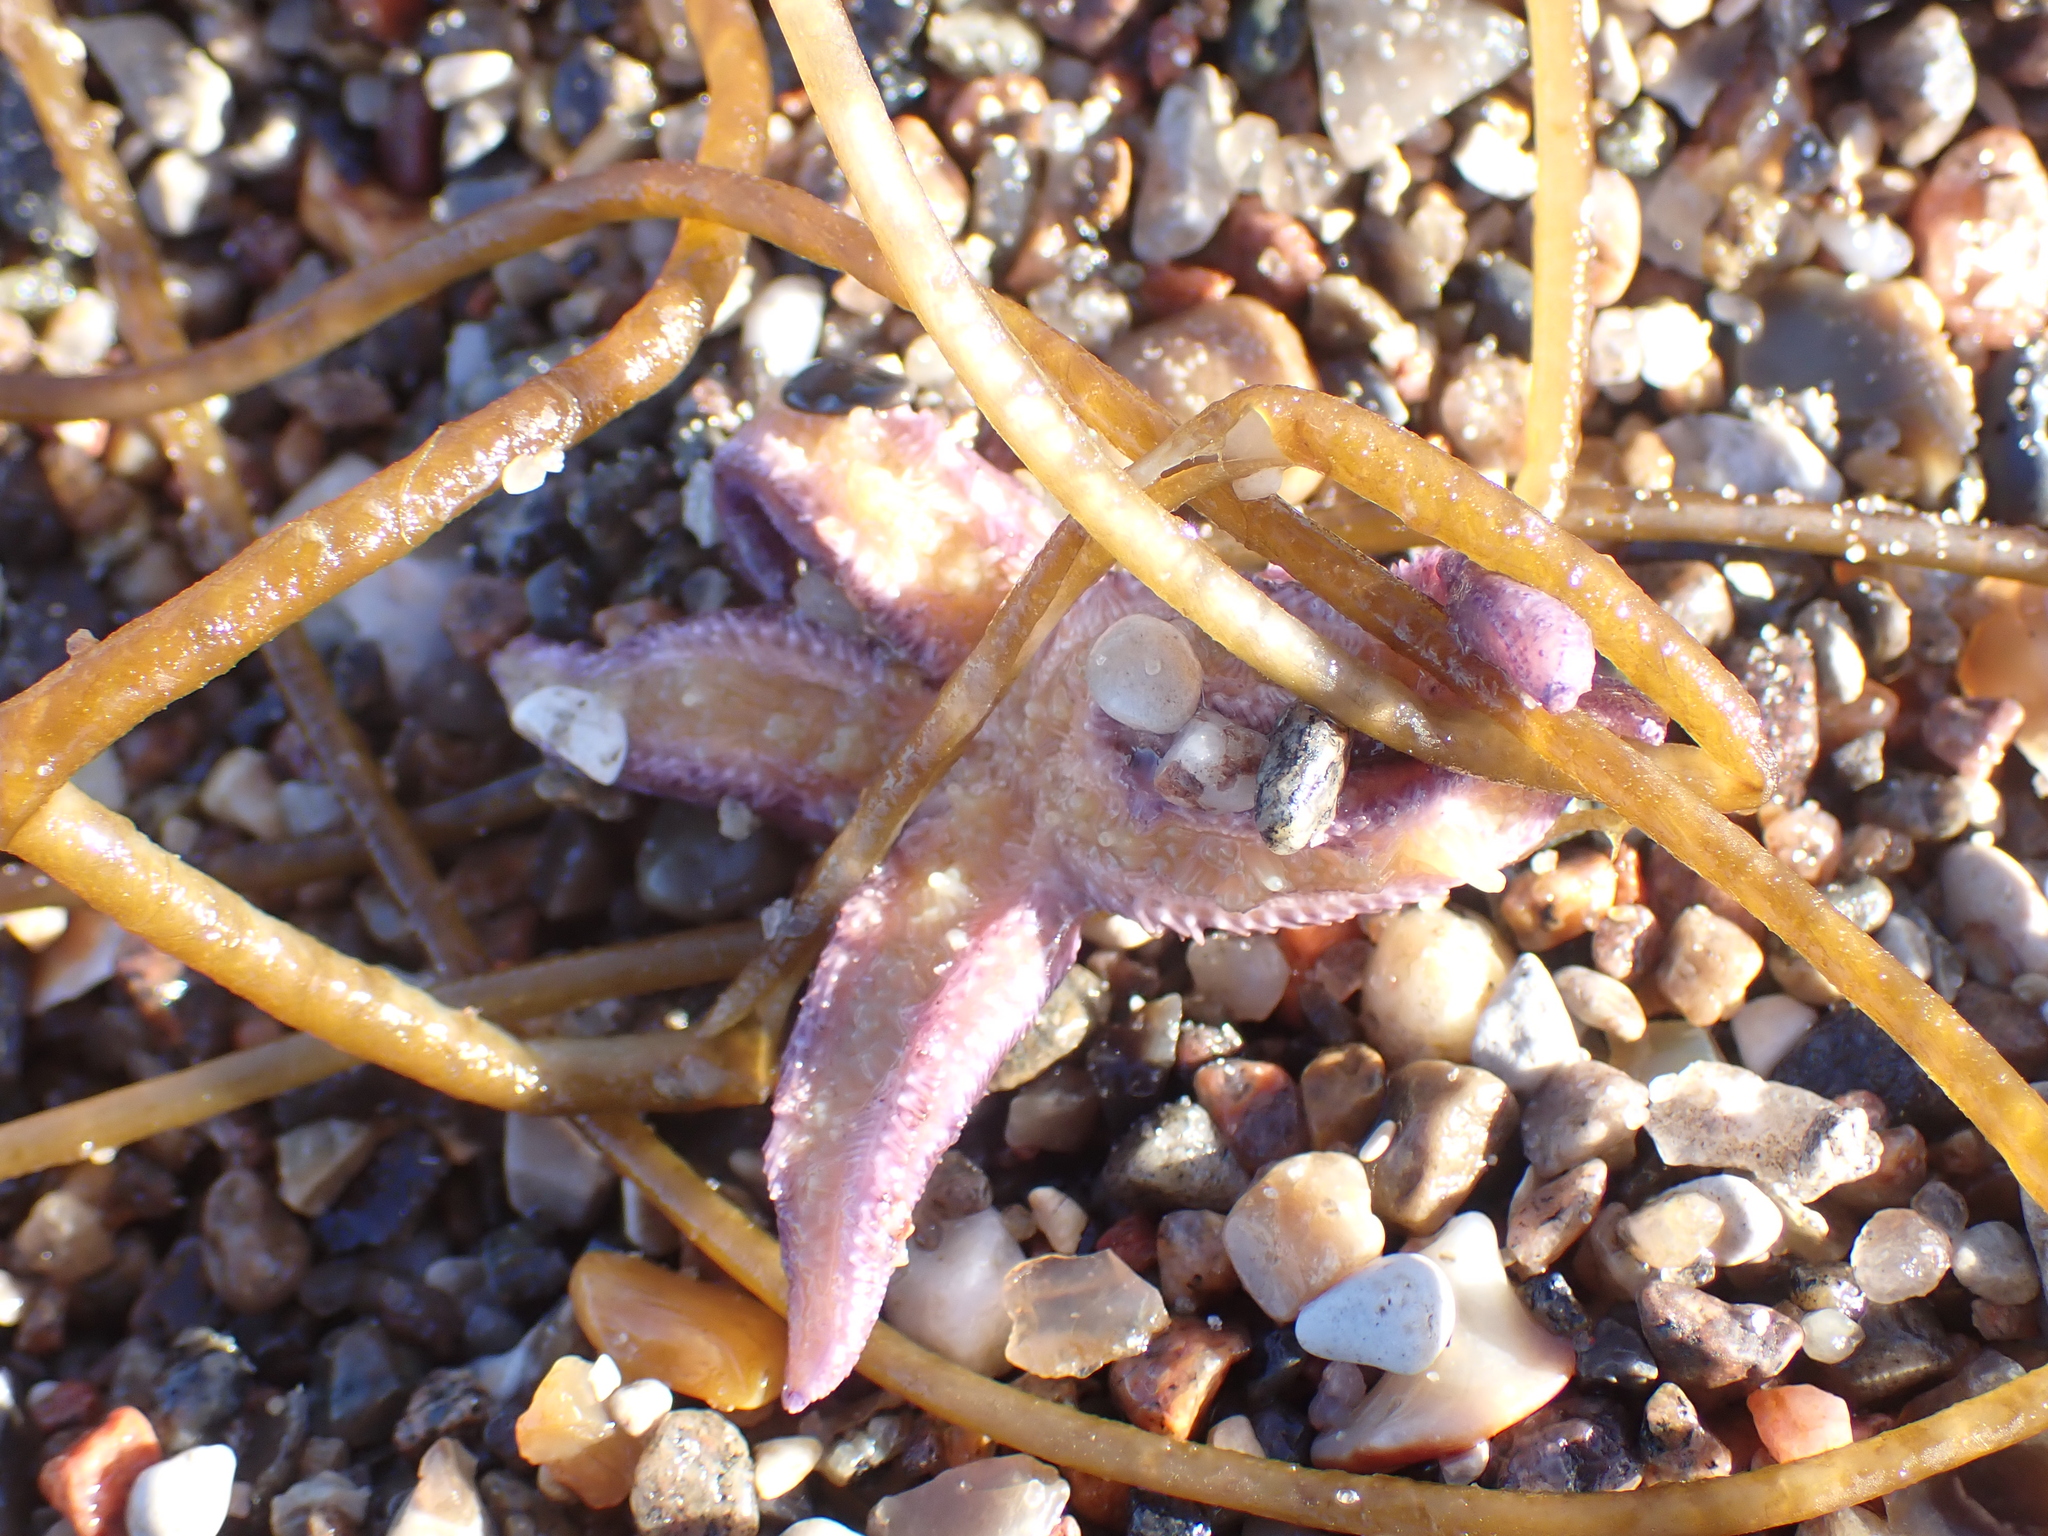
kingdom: Animalia
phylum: Echinodermata
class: Asteroidea
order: Forcipulatida
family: Asteriidae
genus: Asterias
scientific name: Asterias rubens
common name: Common starfish
